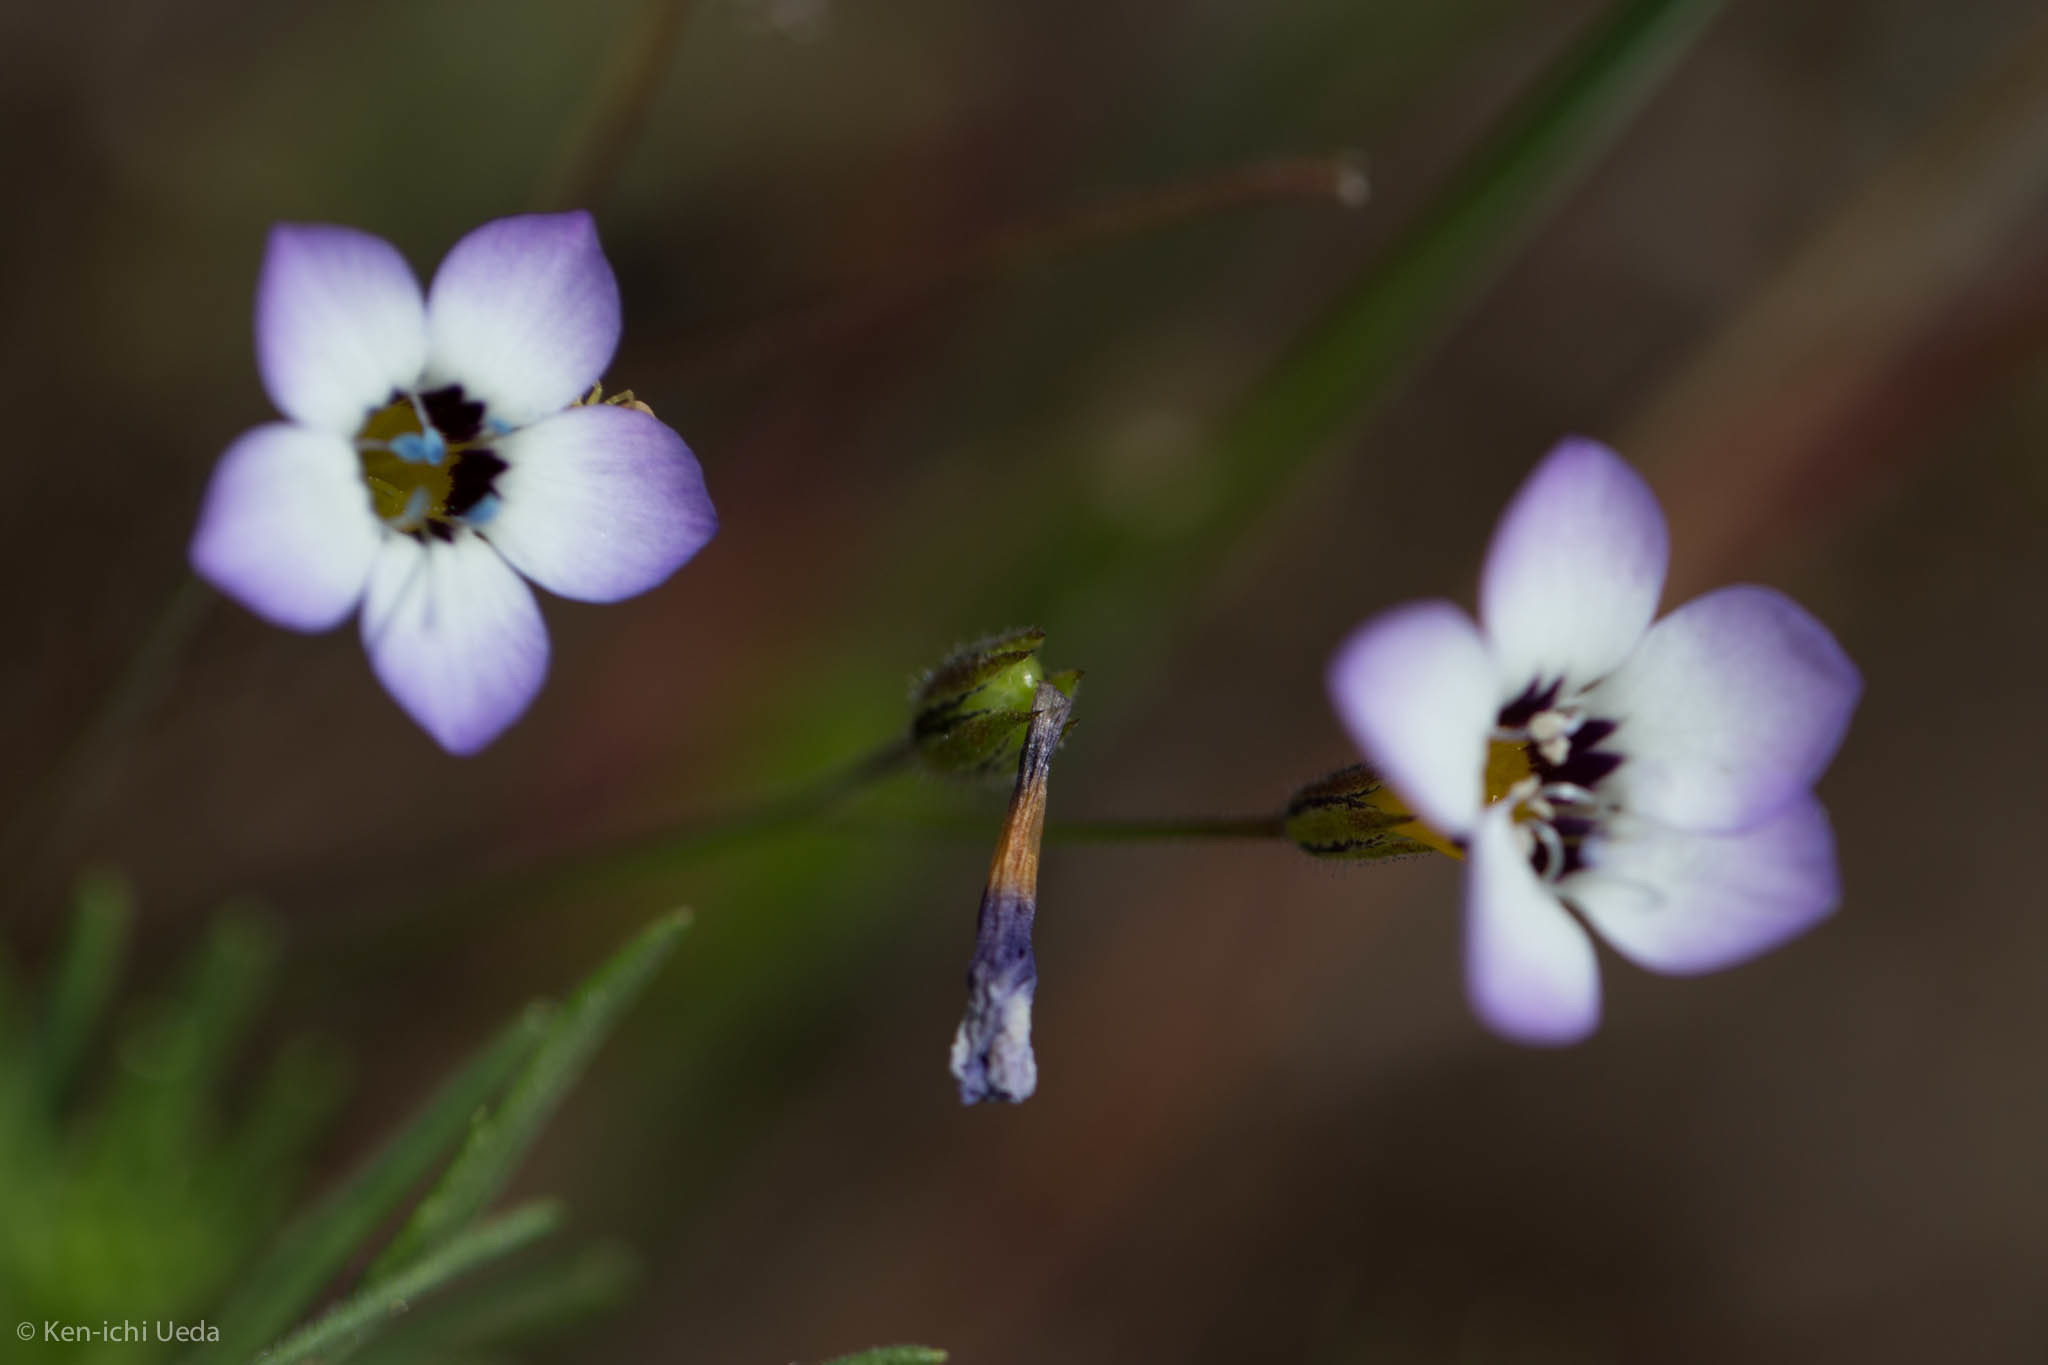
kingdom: Plantae
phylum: Tracheophyta
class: Magnoliopsida
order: Ericales
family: Polemoniaceae
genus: Gilia
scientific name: Gilia tricolor
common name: Bird's-eyes
